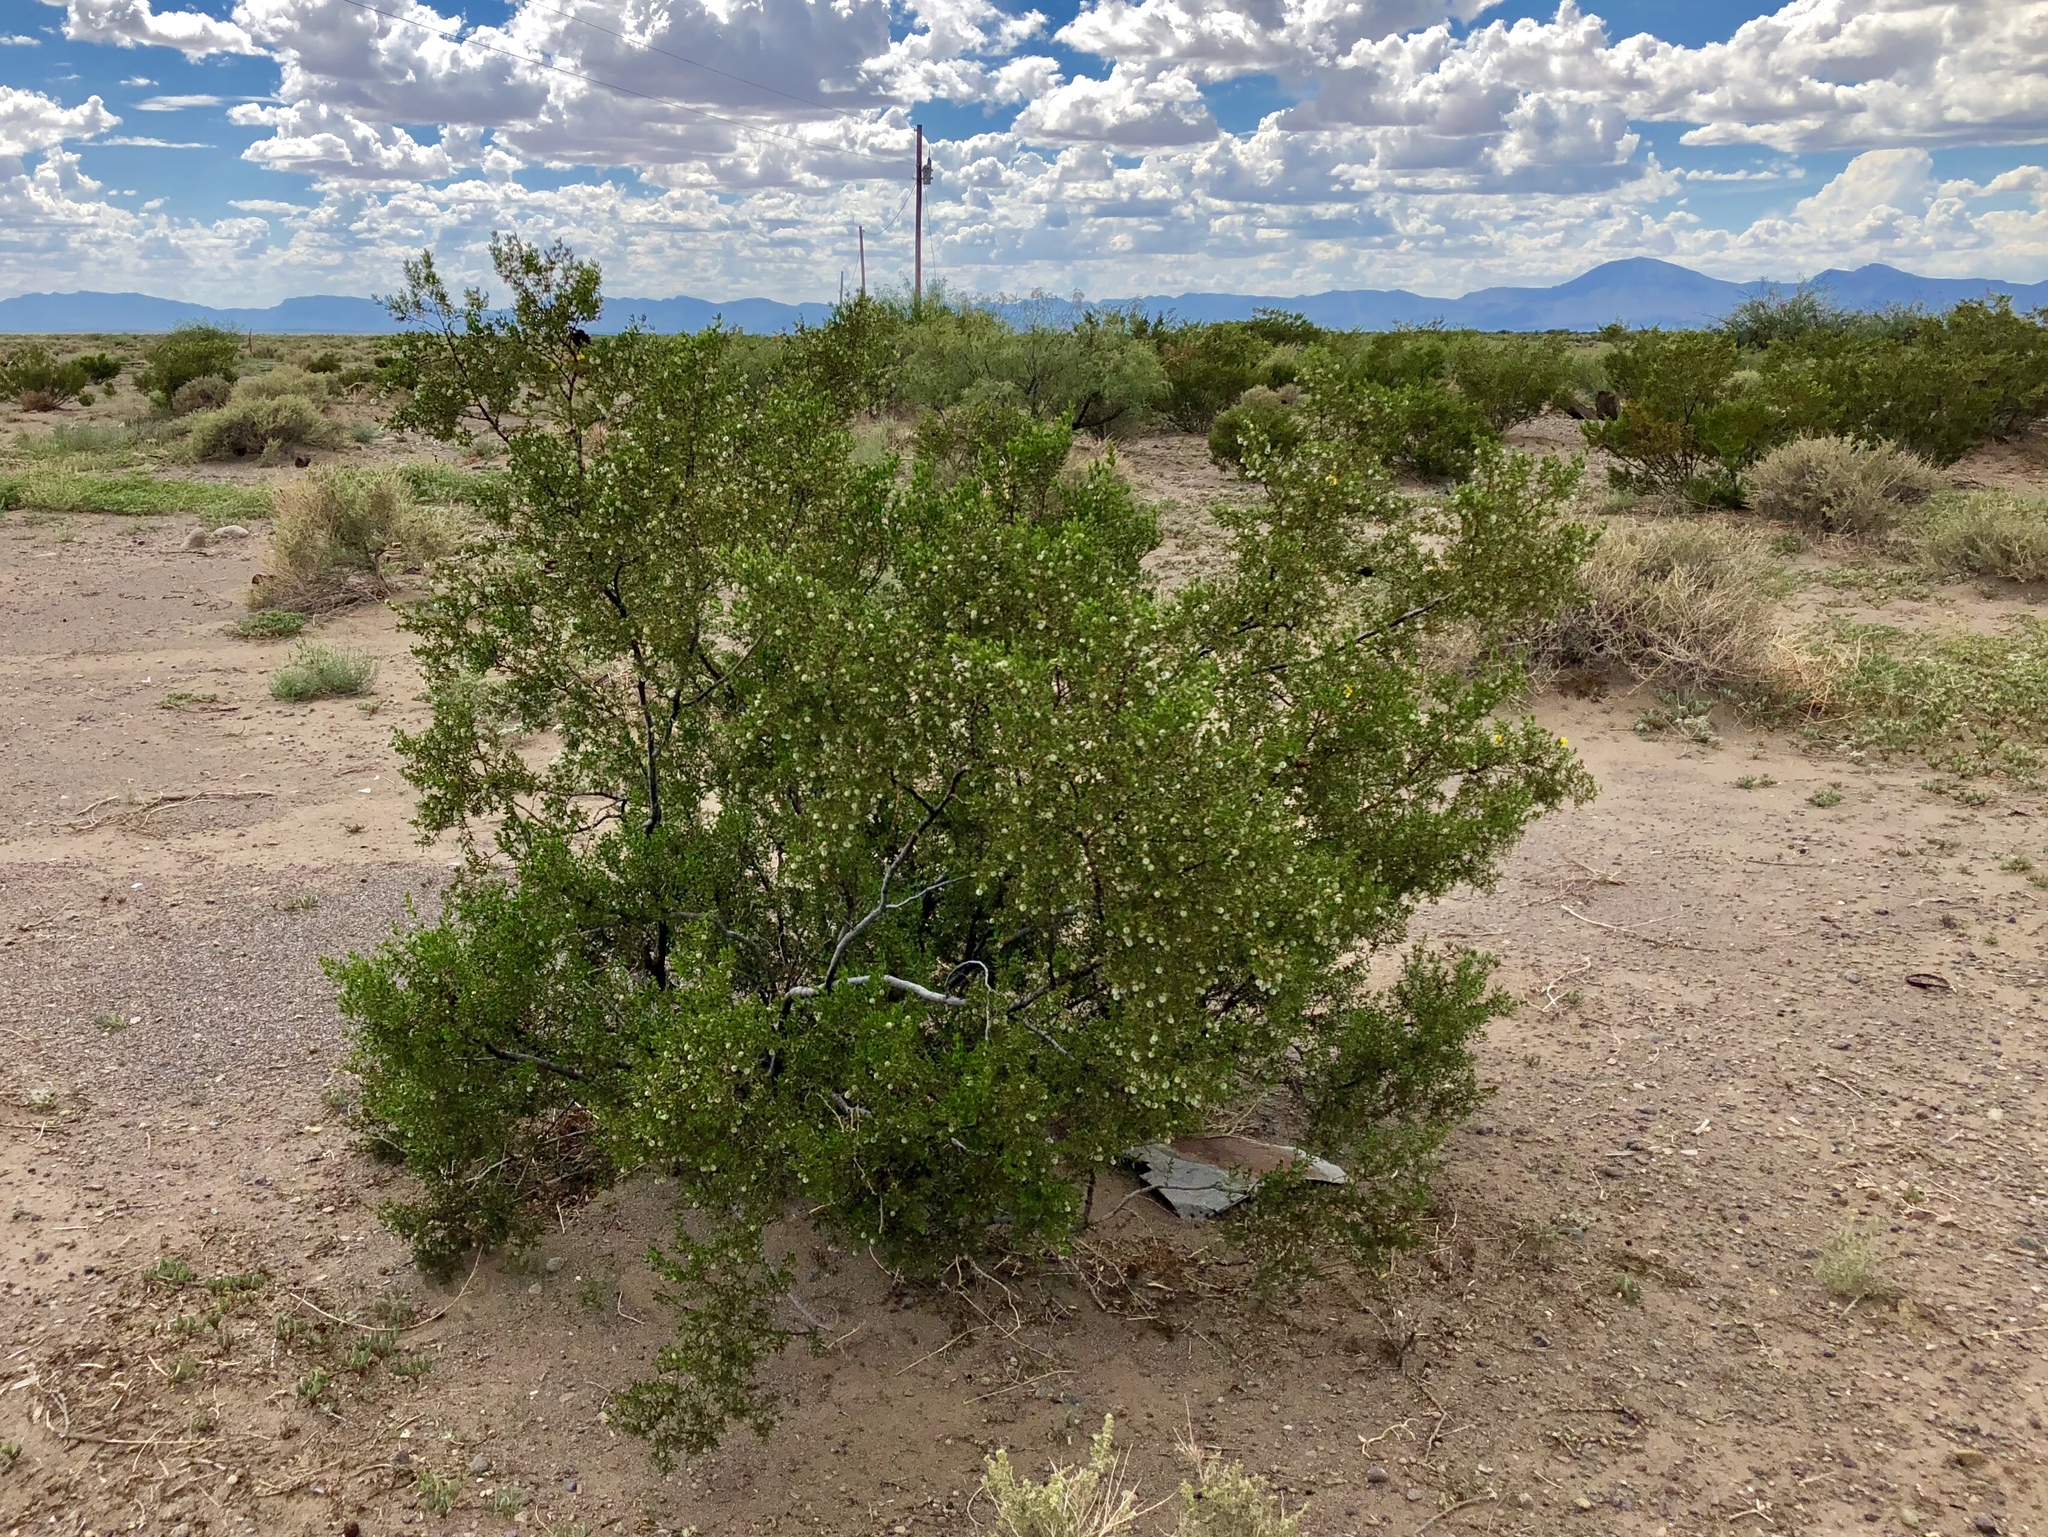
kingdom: Plantae
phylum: Tracheophyta
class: Magnoliopsida
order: Zygophyllales
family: Zygophyllaceae
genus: Larrea
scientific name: Larrea tridentata
